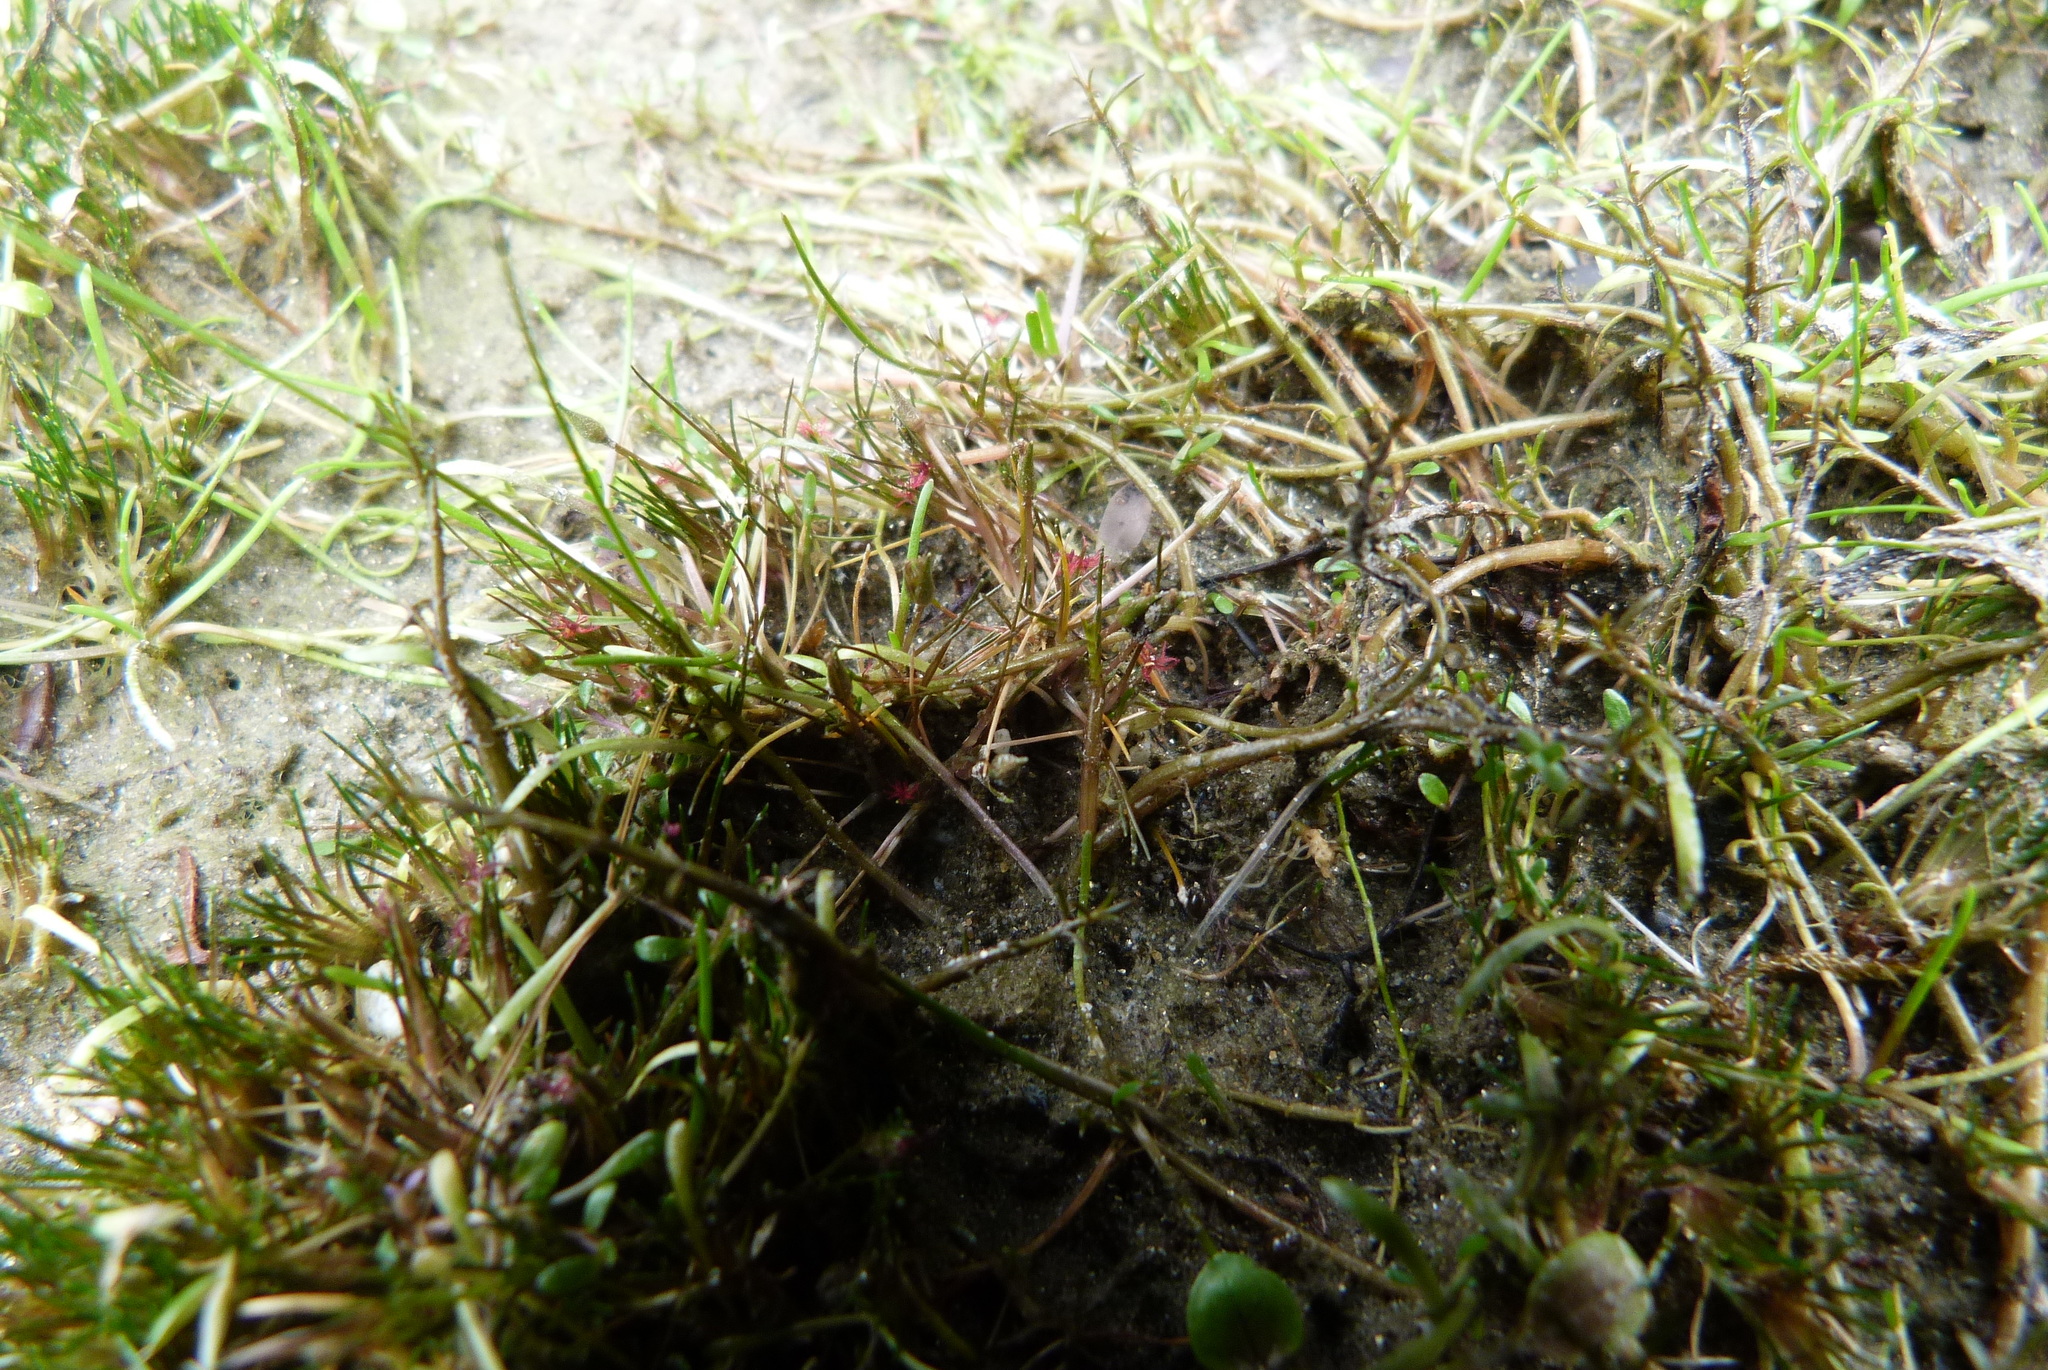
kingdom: Plantae
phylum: Tracheophyta
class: Liliopsida
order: Poales
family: Restionaceae
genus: Centrolepis
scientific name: Centrolepis pallida
